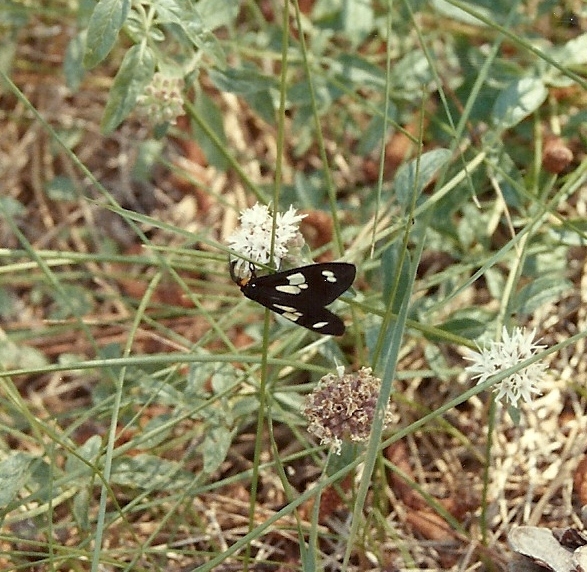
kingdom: Animalia
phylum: Arthropoda
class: Insecta
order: Lepidoptera
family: Erebidae
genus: Gnophaela
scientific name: Gnophaela latipennis
